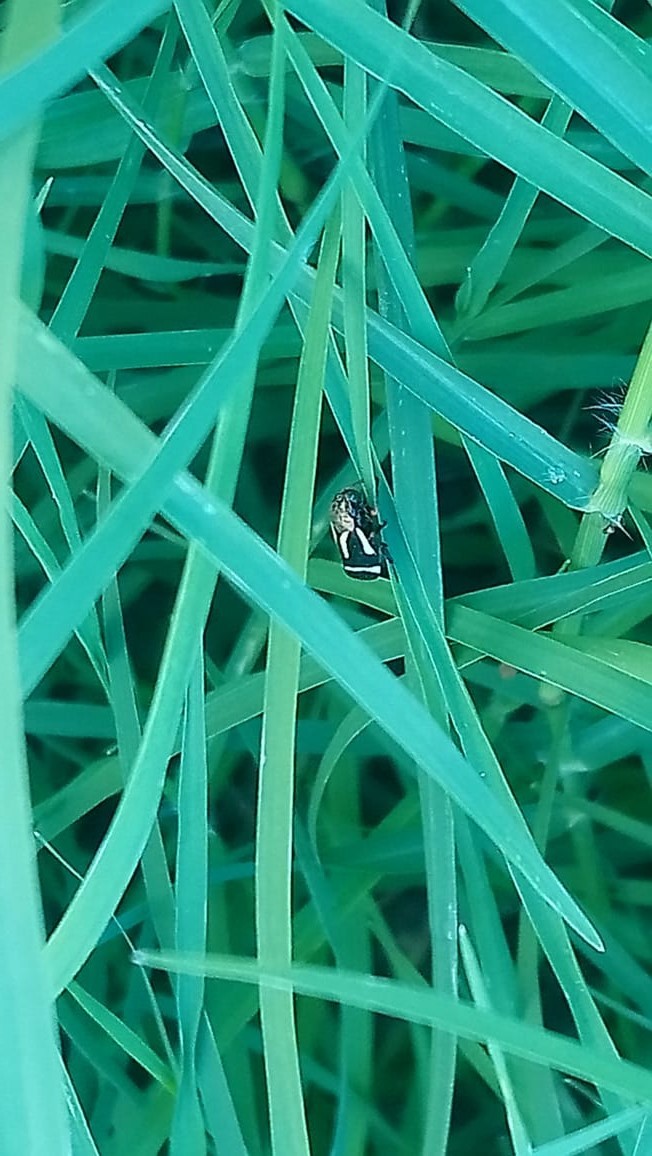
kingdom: Animalia
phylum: Arthropoda
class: Insecta
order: Hemiptera
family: Cercopidae
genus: Notozulia
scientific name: Notozulia entreriana
